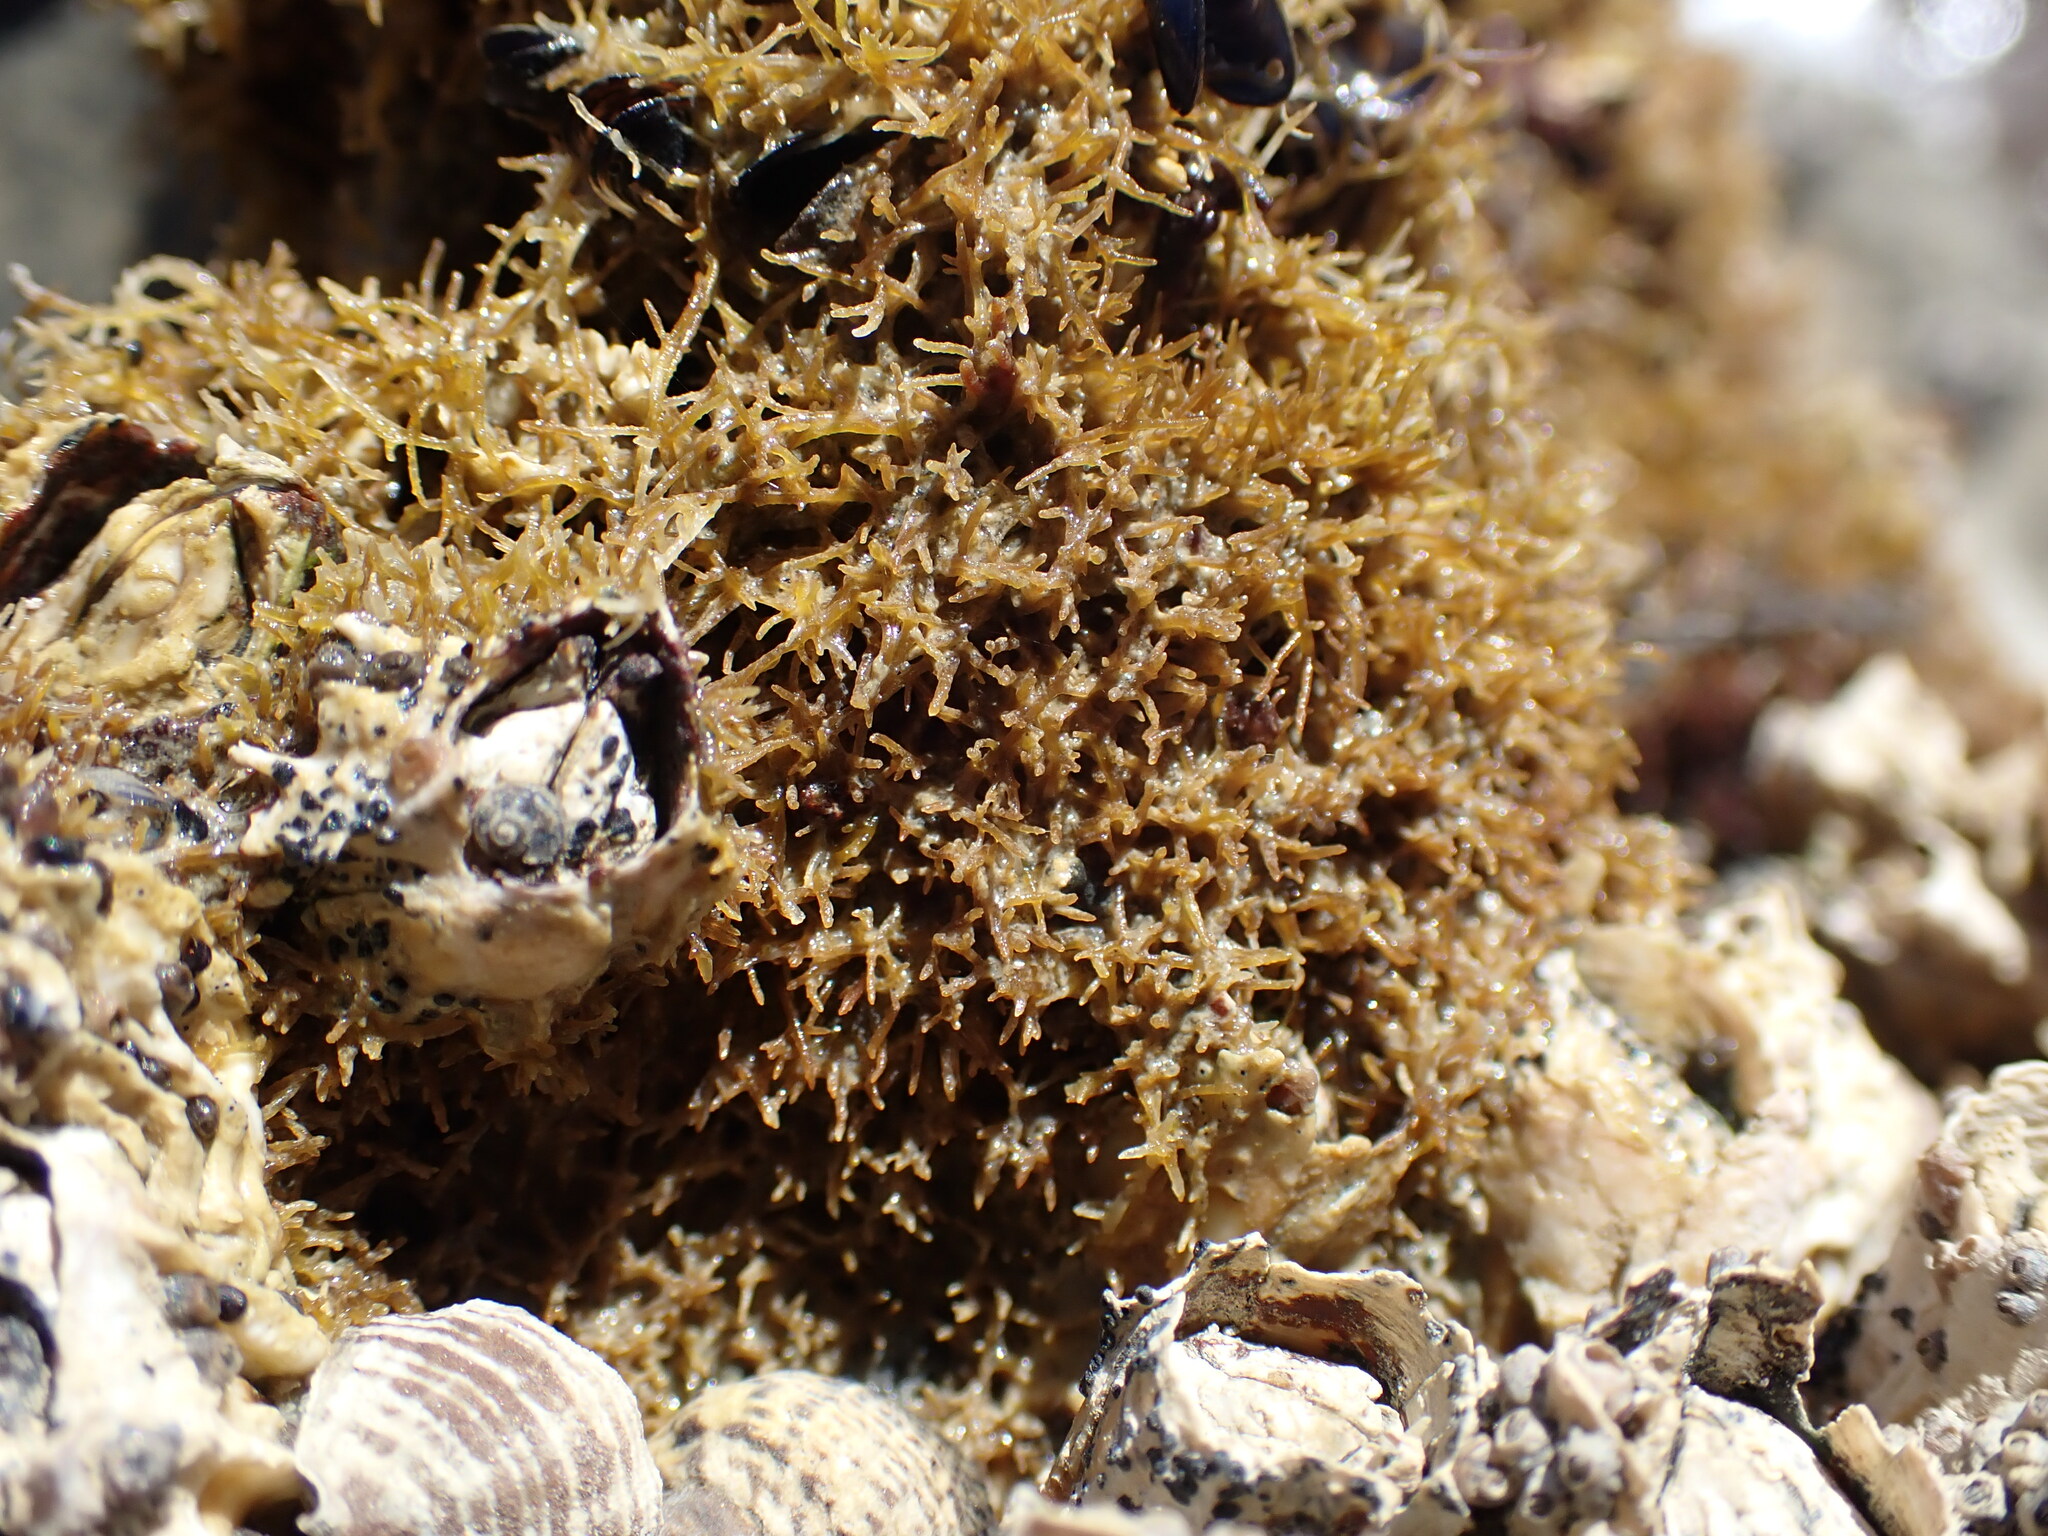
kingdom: Plantae
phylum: Rhodophyta
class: Florideophyceae
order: Gelidiales
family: Gelidiaceae
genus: Capreolia
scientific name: Capreolia implexa
